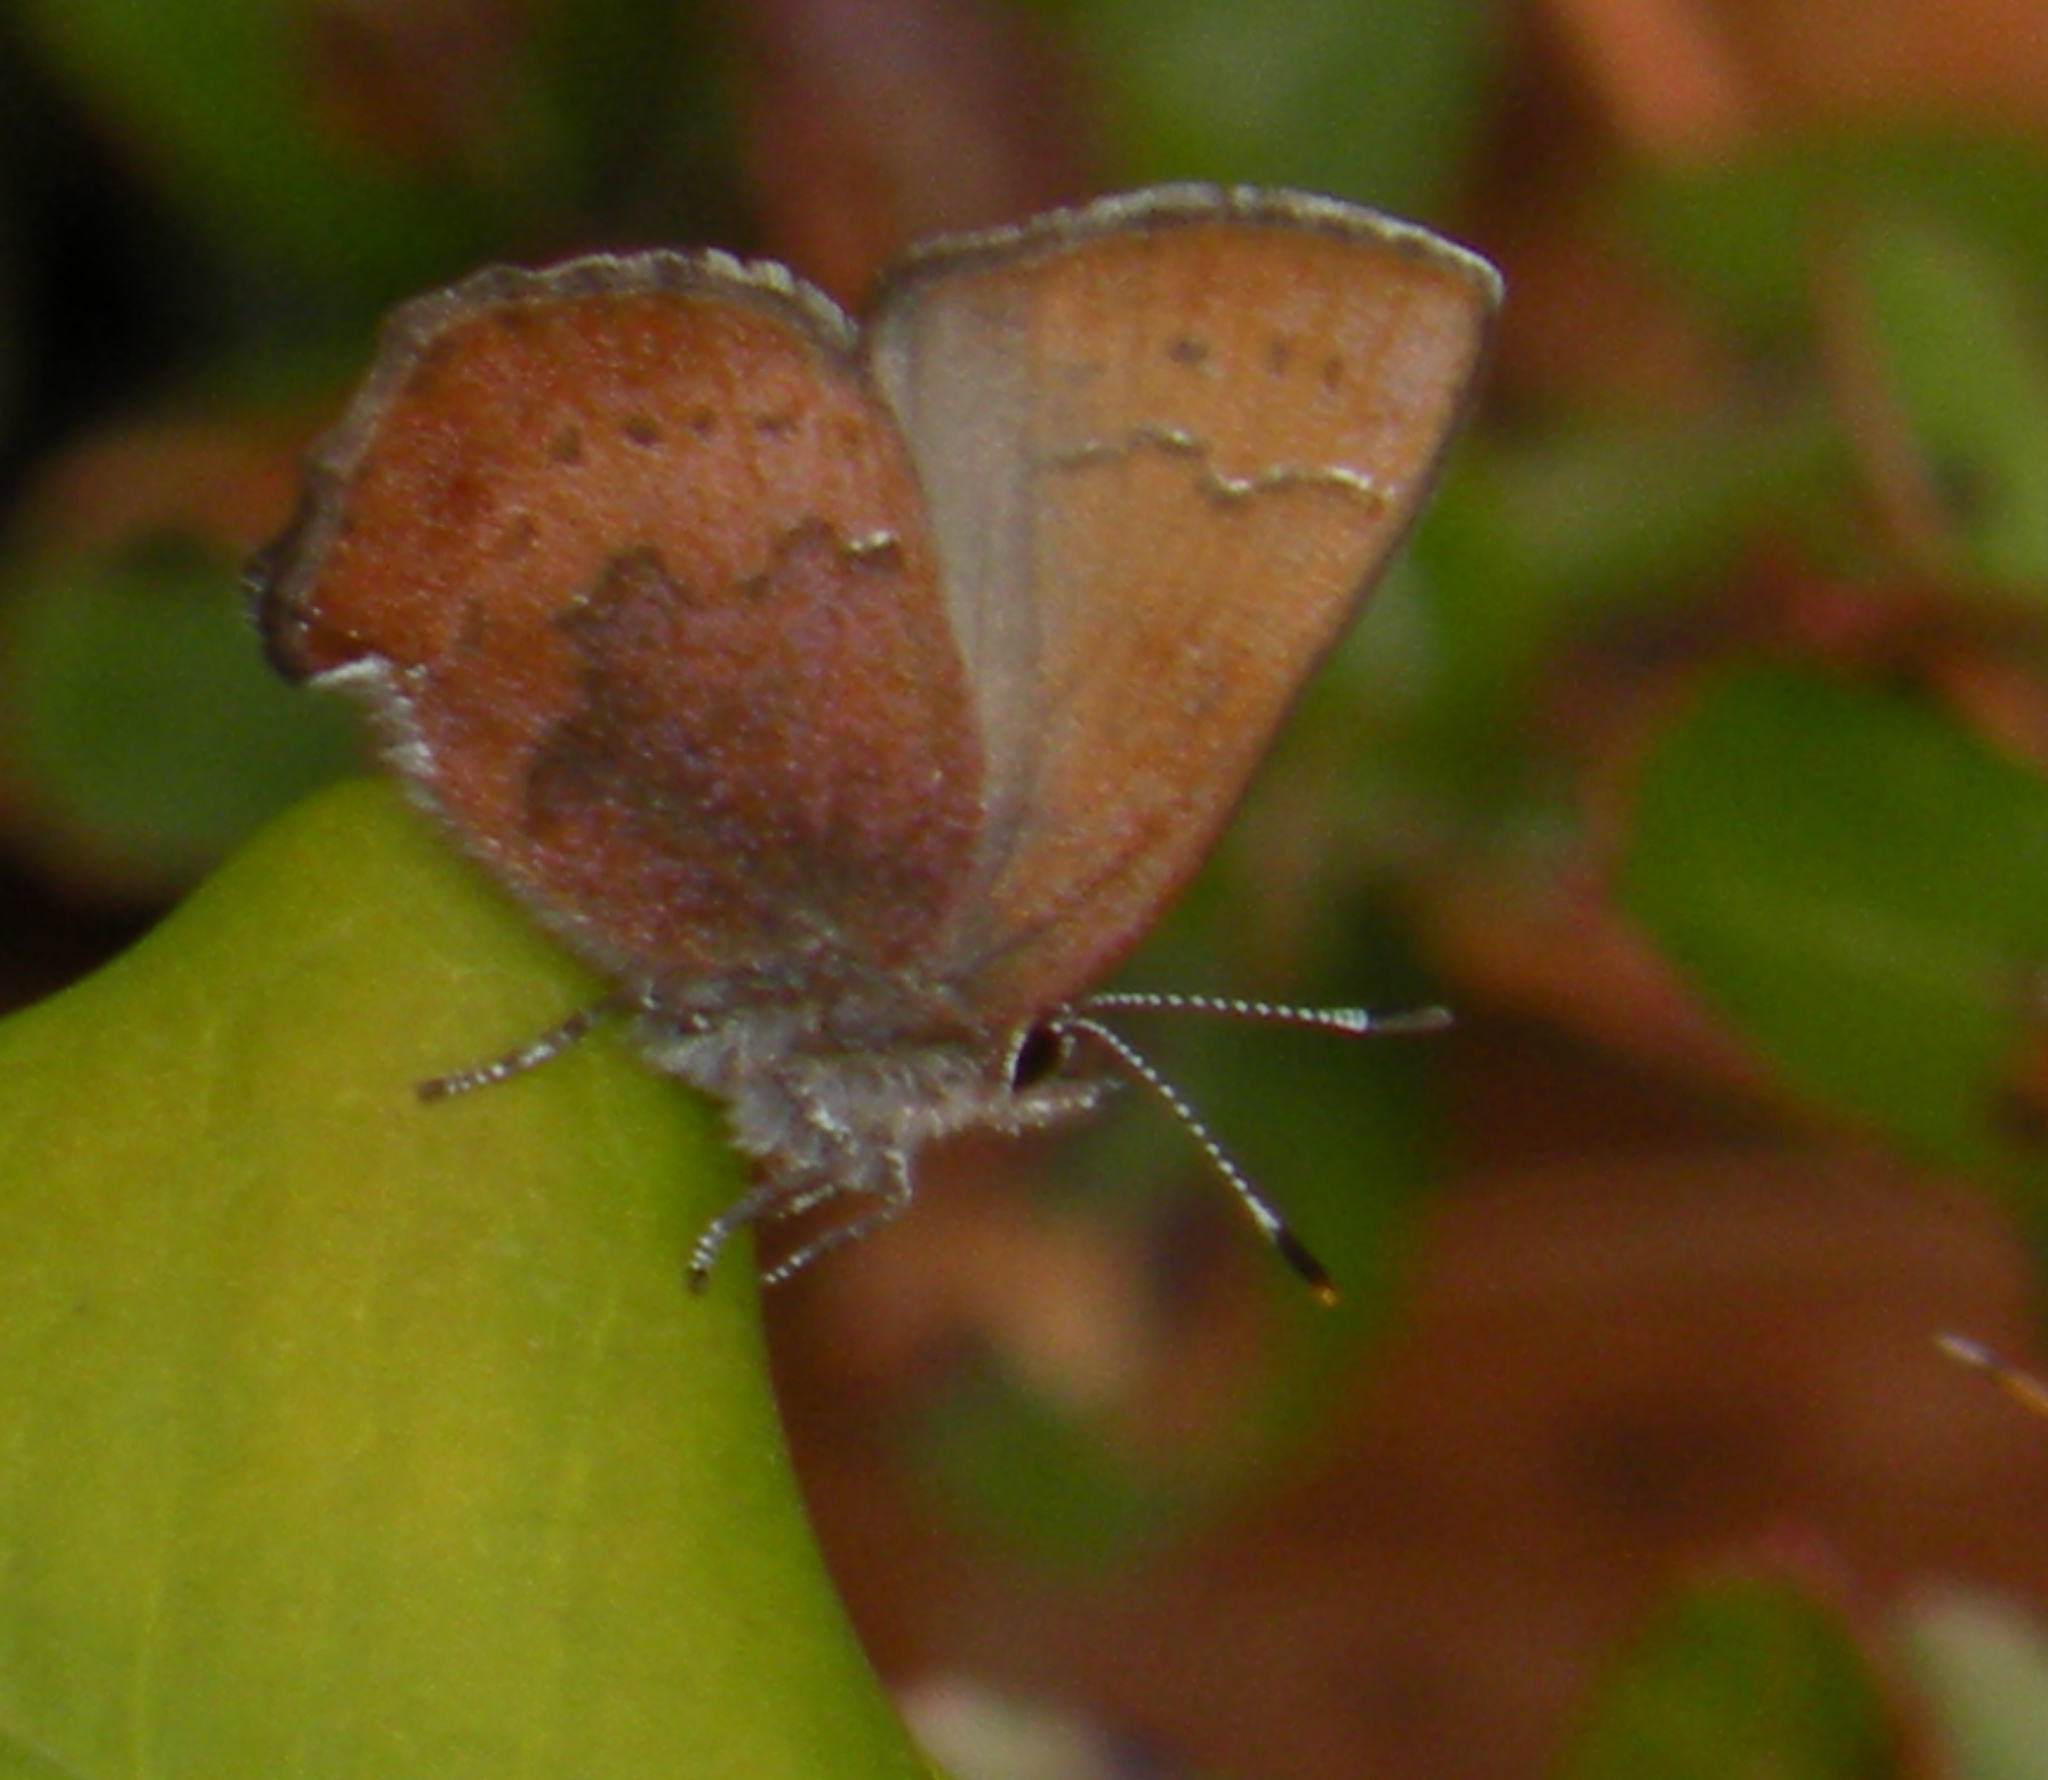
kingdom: Animalia
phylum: Arthropoda
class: Insecta
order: Lepidoptera
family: Lycaenidae
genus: Incisalia
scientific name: Incisalia irioides
